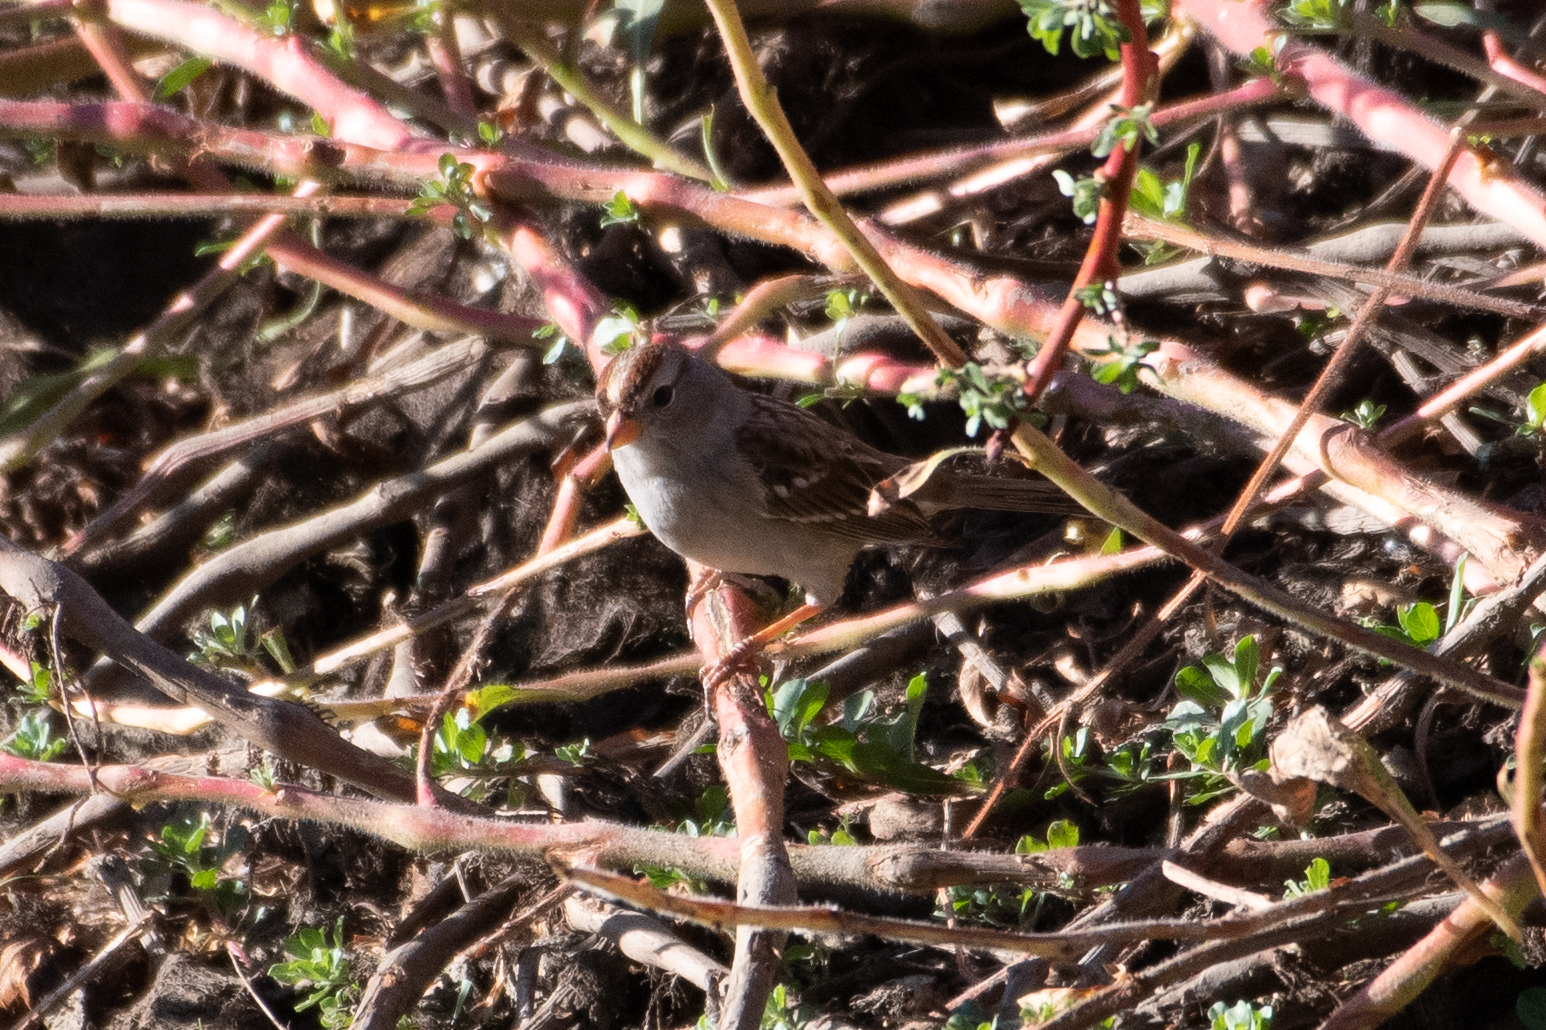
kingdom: Animalia
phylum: Chordata
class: Aves
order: Passeriformes
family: Passerellidae
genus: Zonotrichia
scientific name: Zonotrichia leucophrys
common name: White-crowned sparrow
